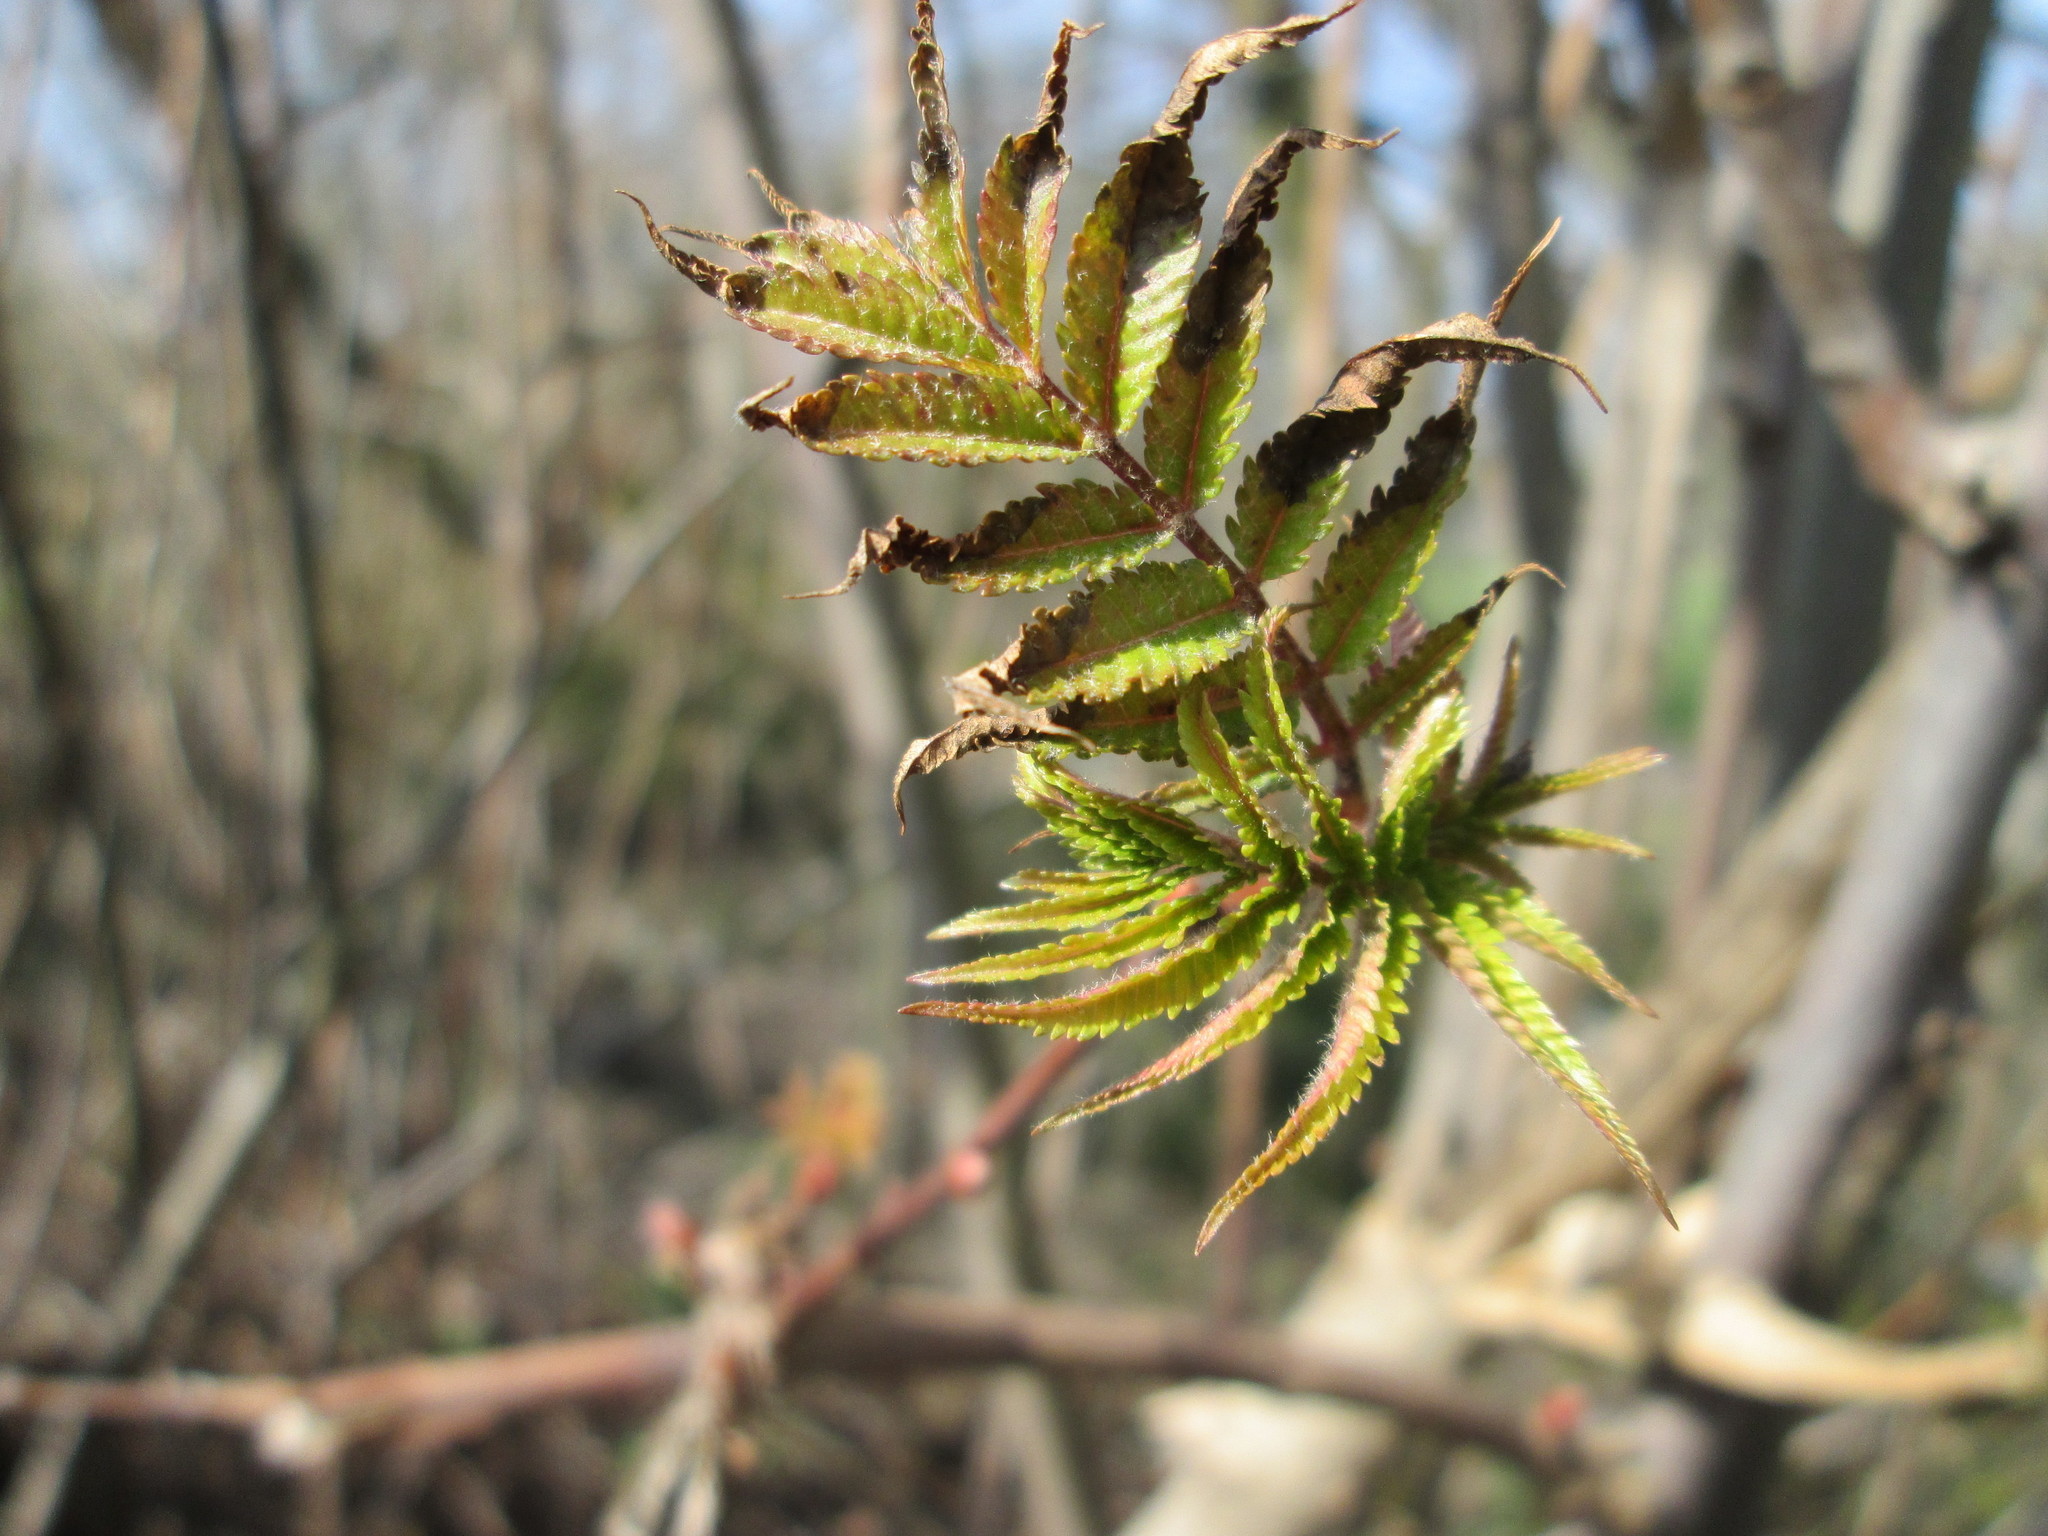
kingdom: Plantae
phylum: Tracheophyta
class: Magnoliopsida
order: Sapindales
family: Anacardiaceae
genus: Rhus
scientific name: Rhus typhina
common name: Staghorn sumac
